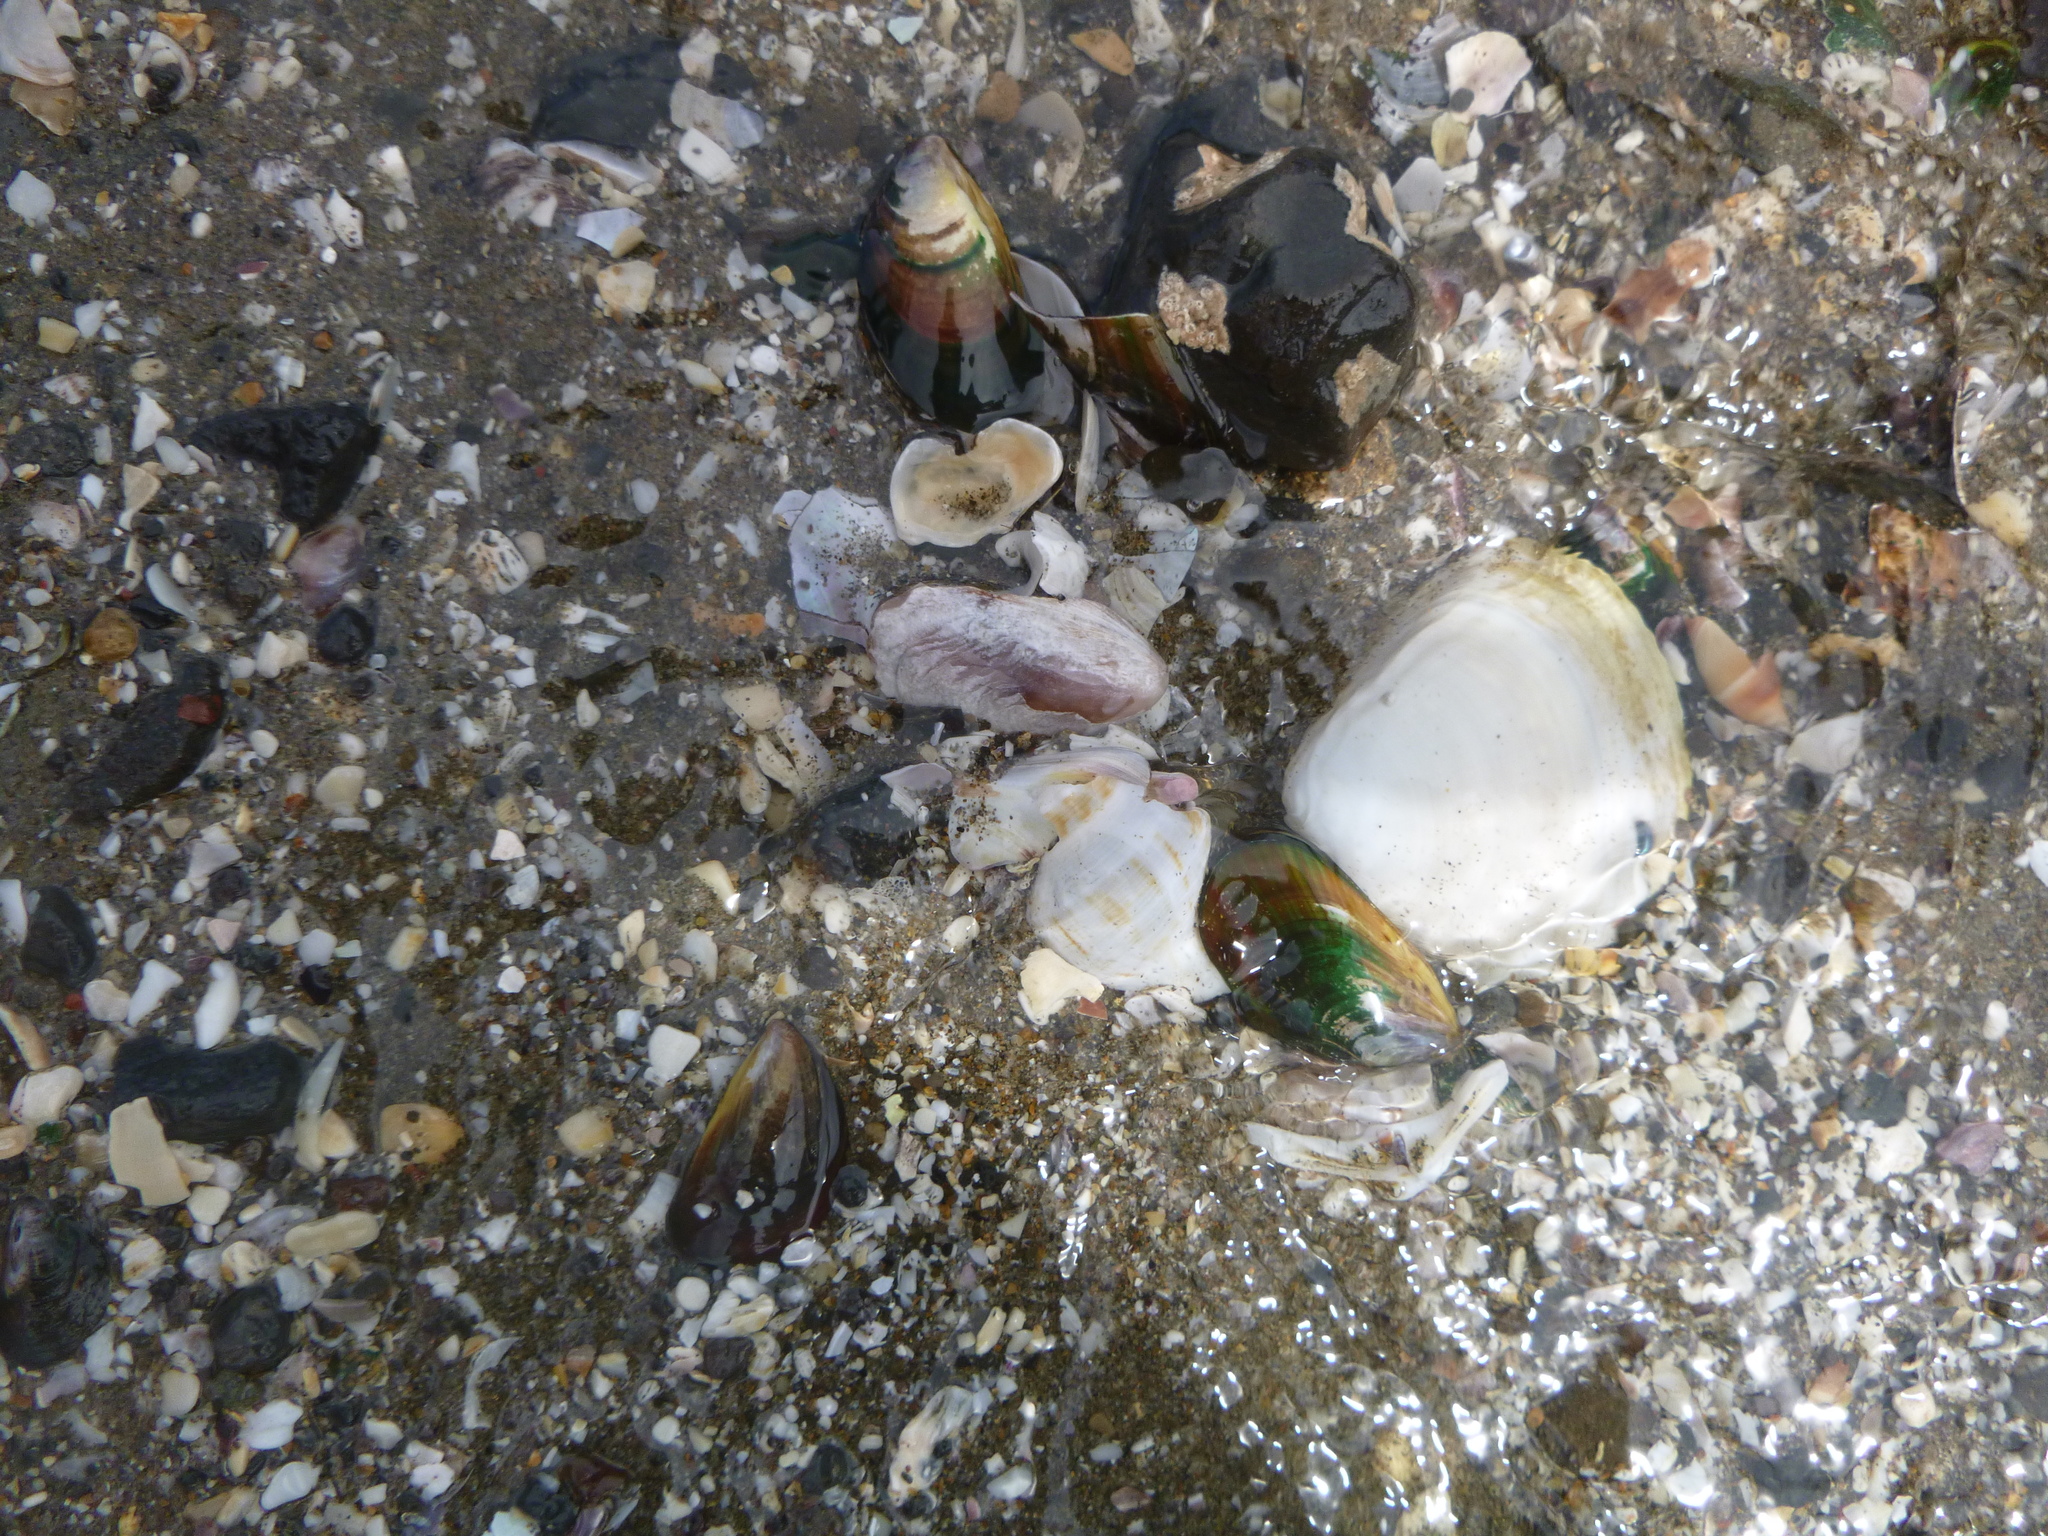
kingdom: Animalia
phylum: Mollusca
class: Gastropoda
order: Neogastropoda
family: Prosiphonidae
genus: Austrofusus
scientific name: Austrofusus glans
